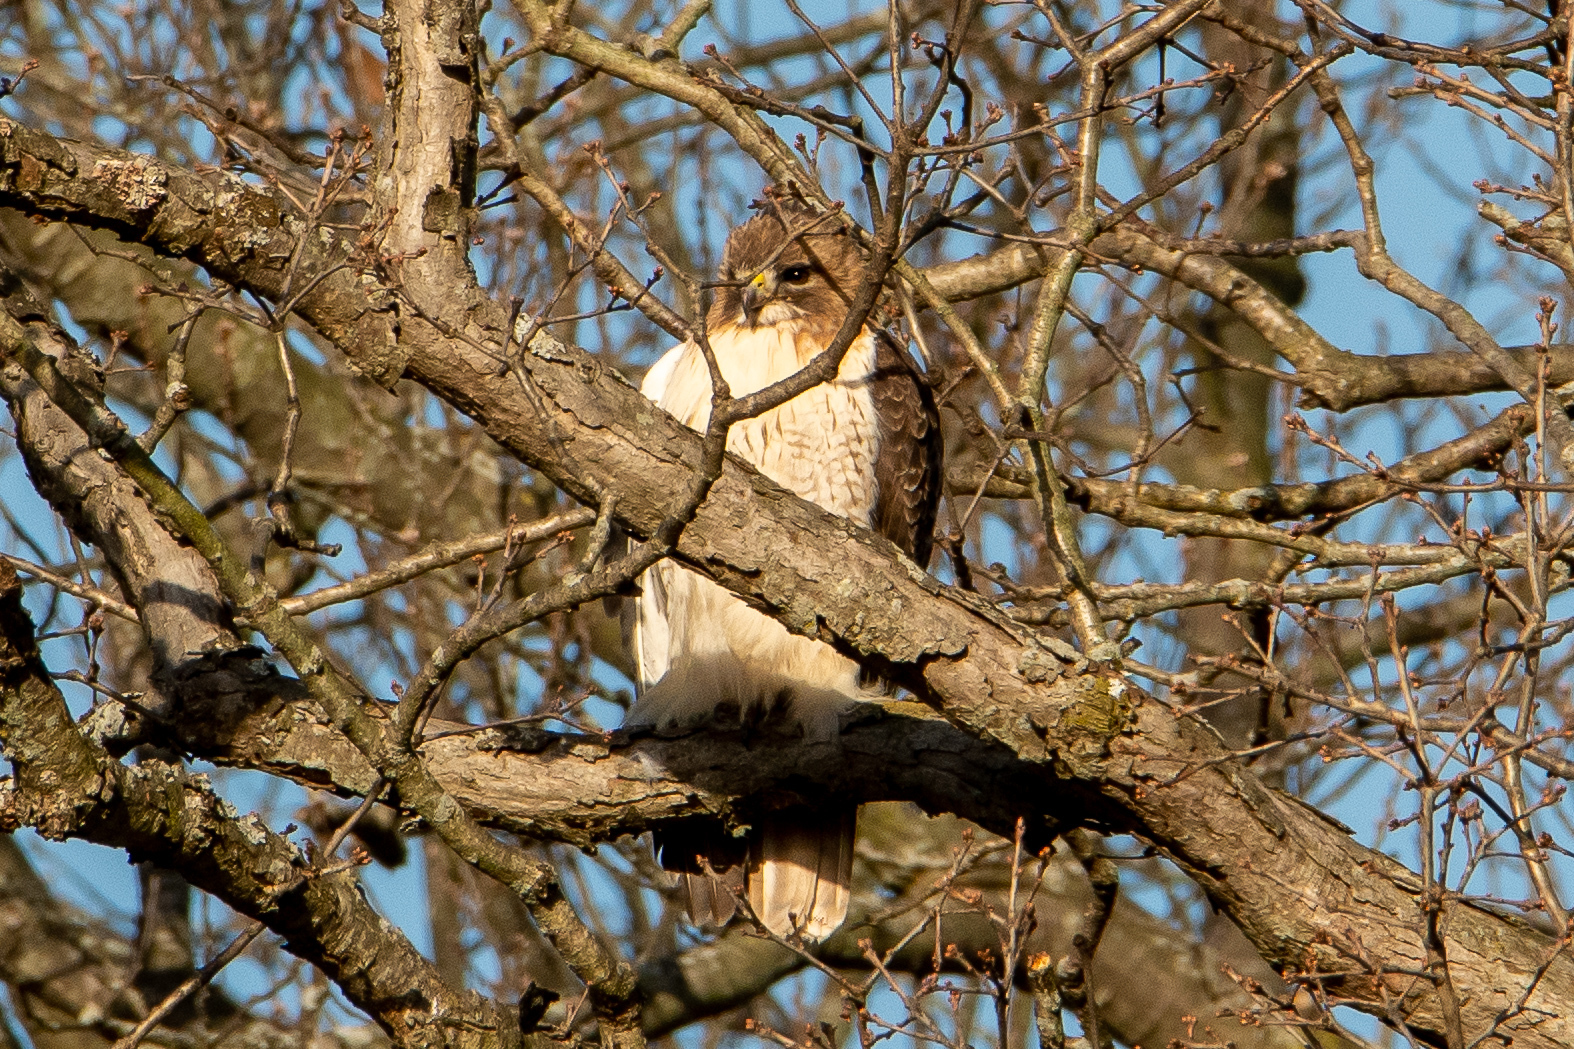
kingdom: Animalia
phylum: Chordata
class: Aves
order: Accipitriformes
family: Accipitridae
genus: Buteo
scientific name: Buteo jamaicensis
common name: Red-tailed hawk
